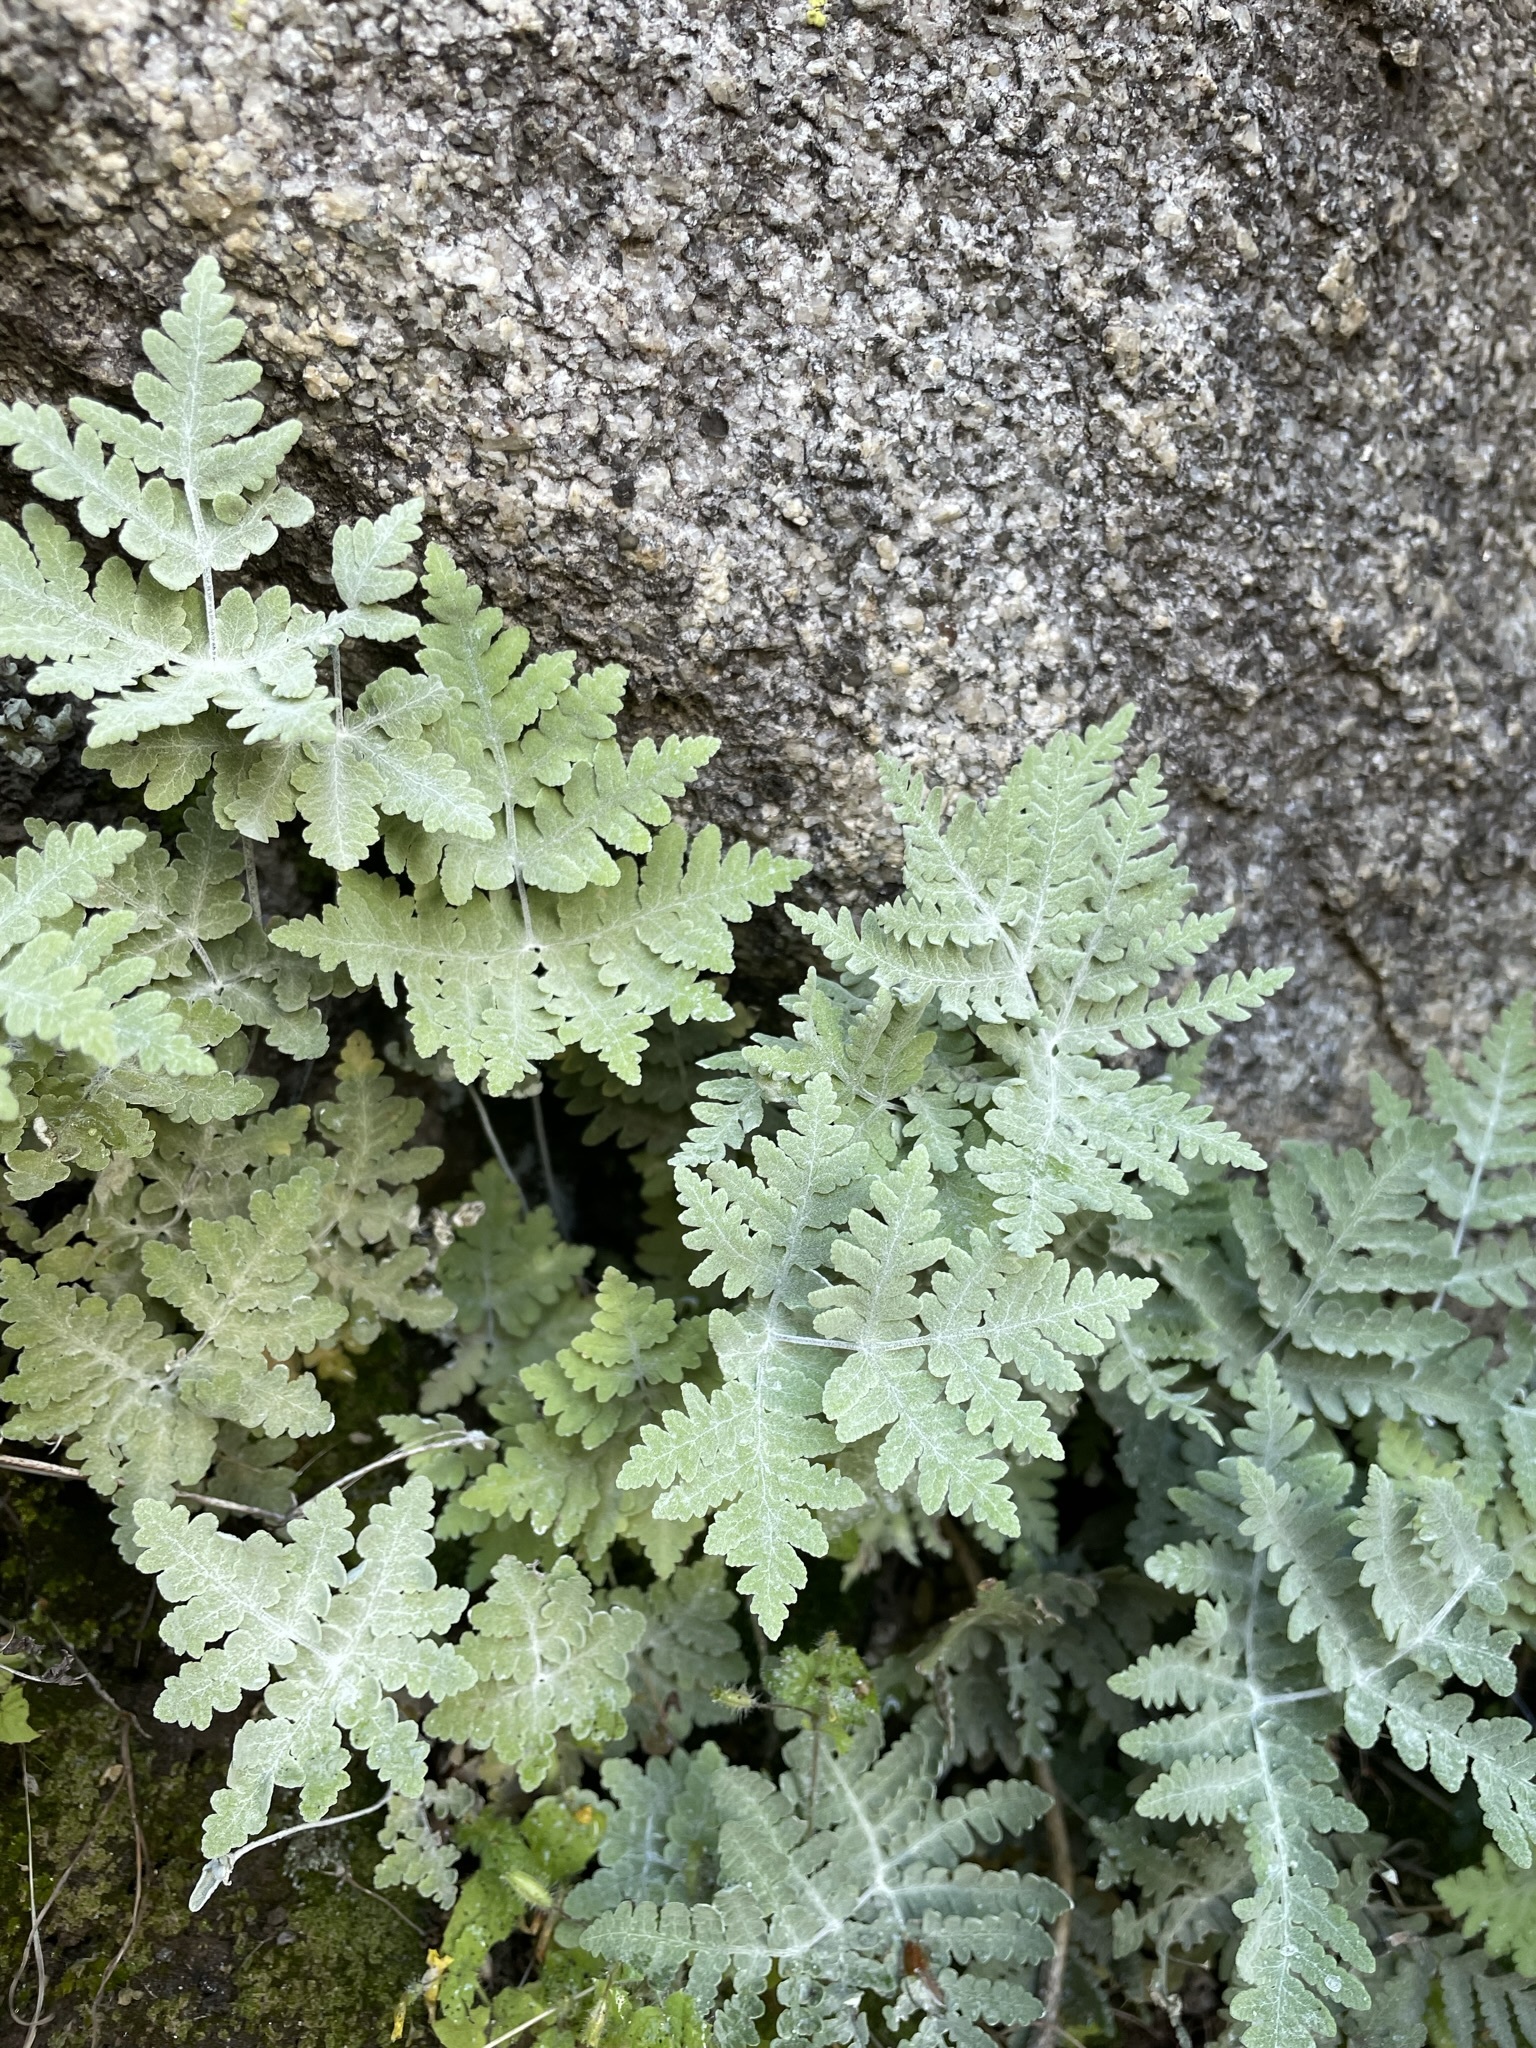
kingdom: Plantae
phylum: Tracheophyta
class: Polypodiopsida
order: Polypodiales
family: Pteridaceae
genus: Pentagramma
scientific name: Pentagramma pallida
